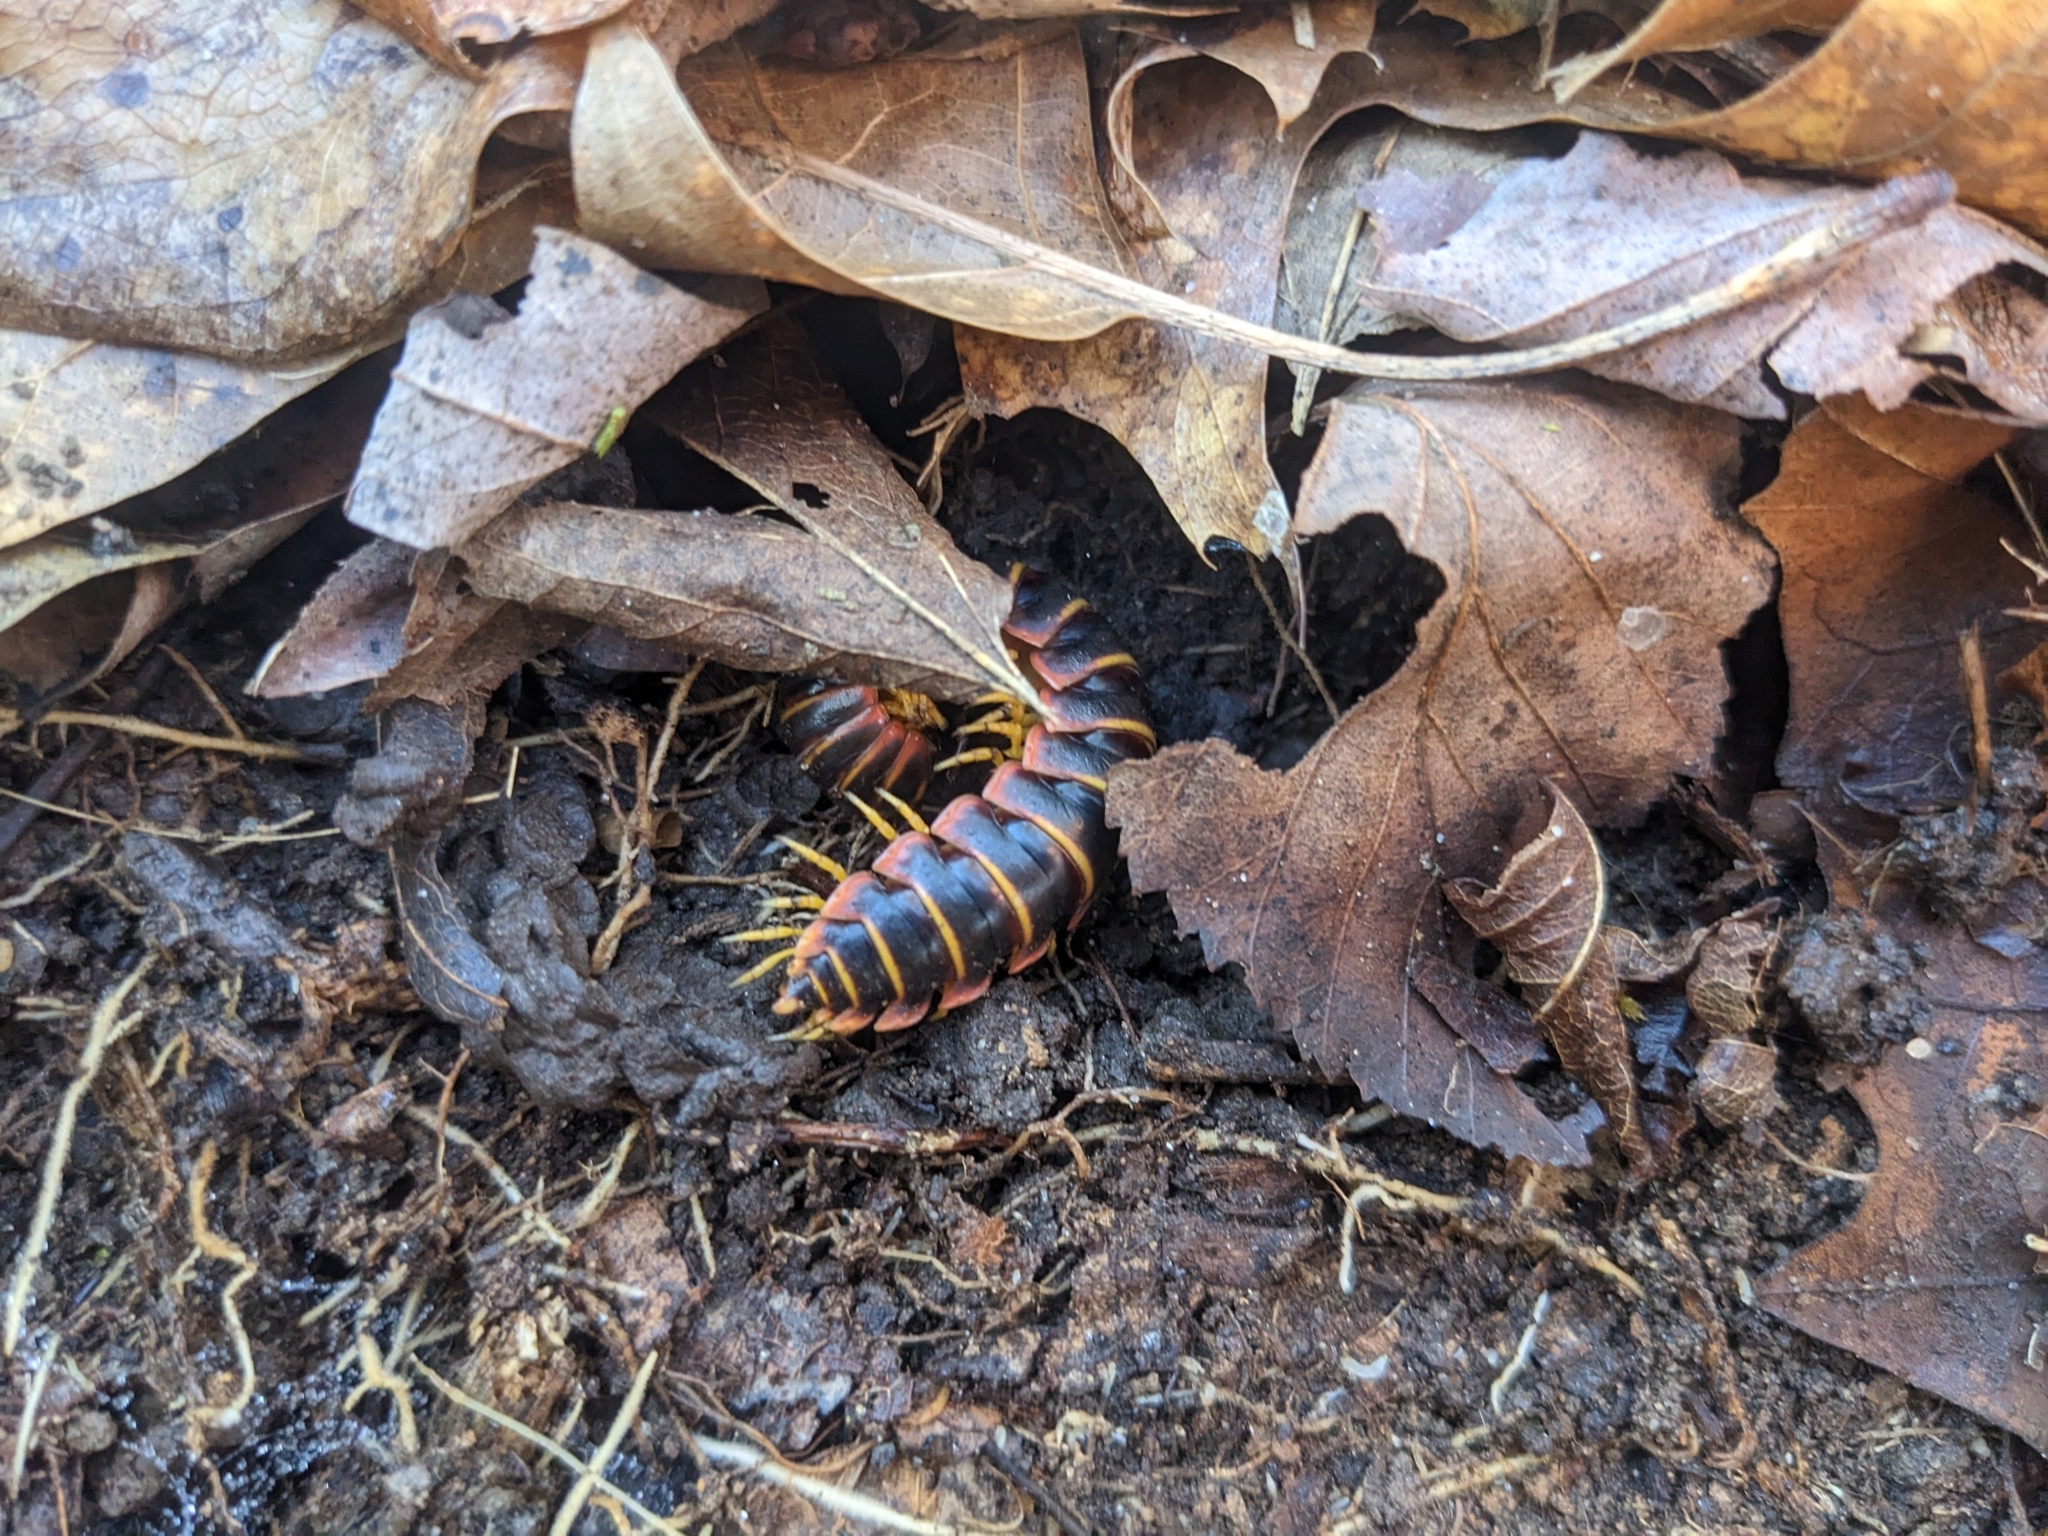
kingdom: Animalia
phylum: Arthropoda
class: Diplopoda
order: Polydesmida
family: Xystodesmidae
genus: Apheloria
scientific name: Apheloria virginiensis
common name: Black-and-gold flat millipede
